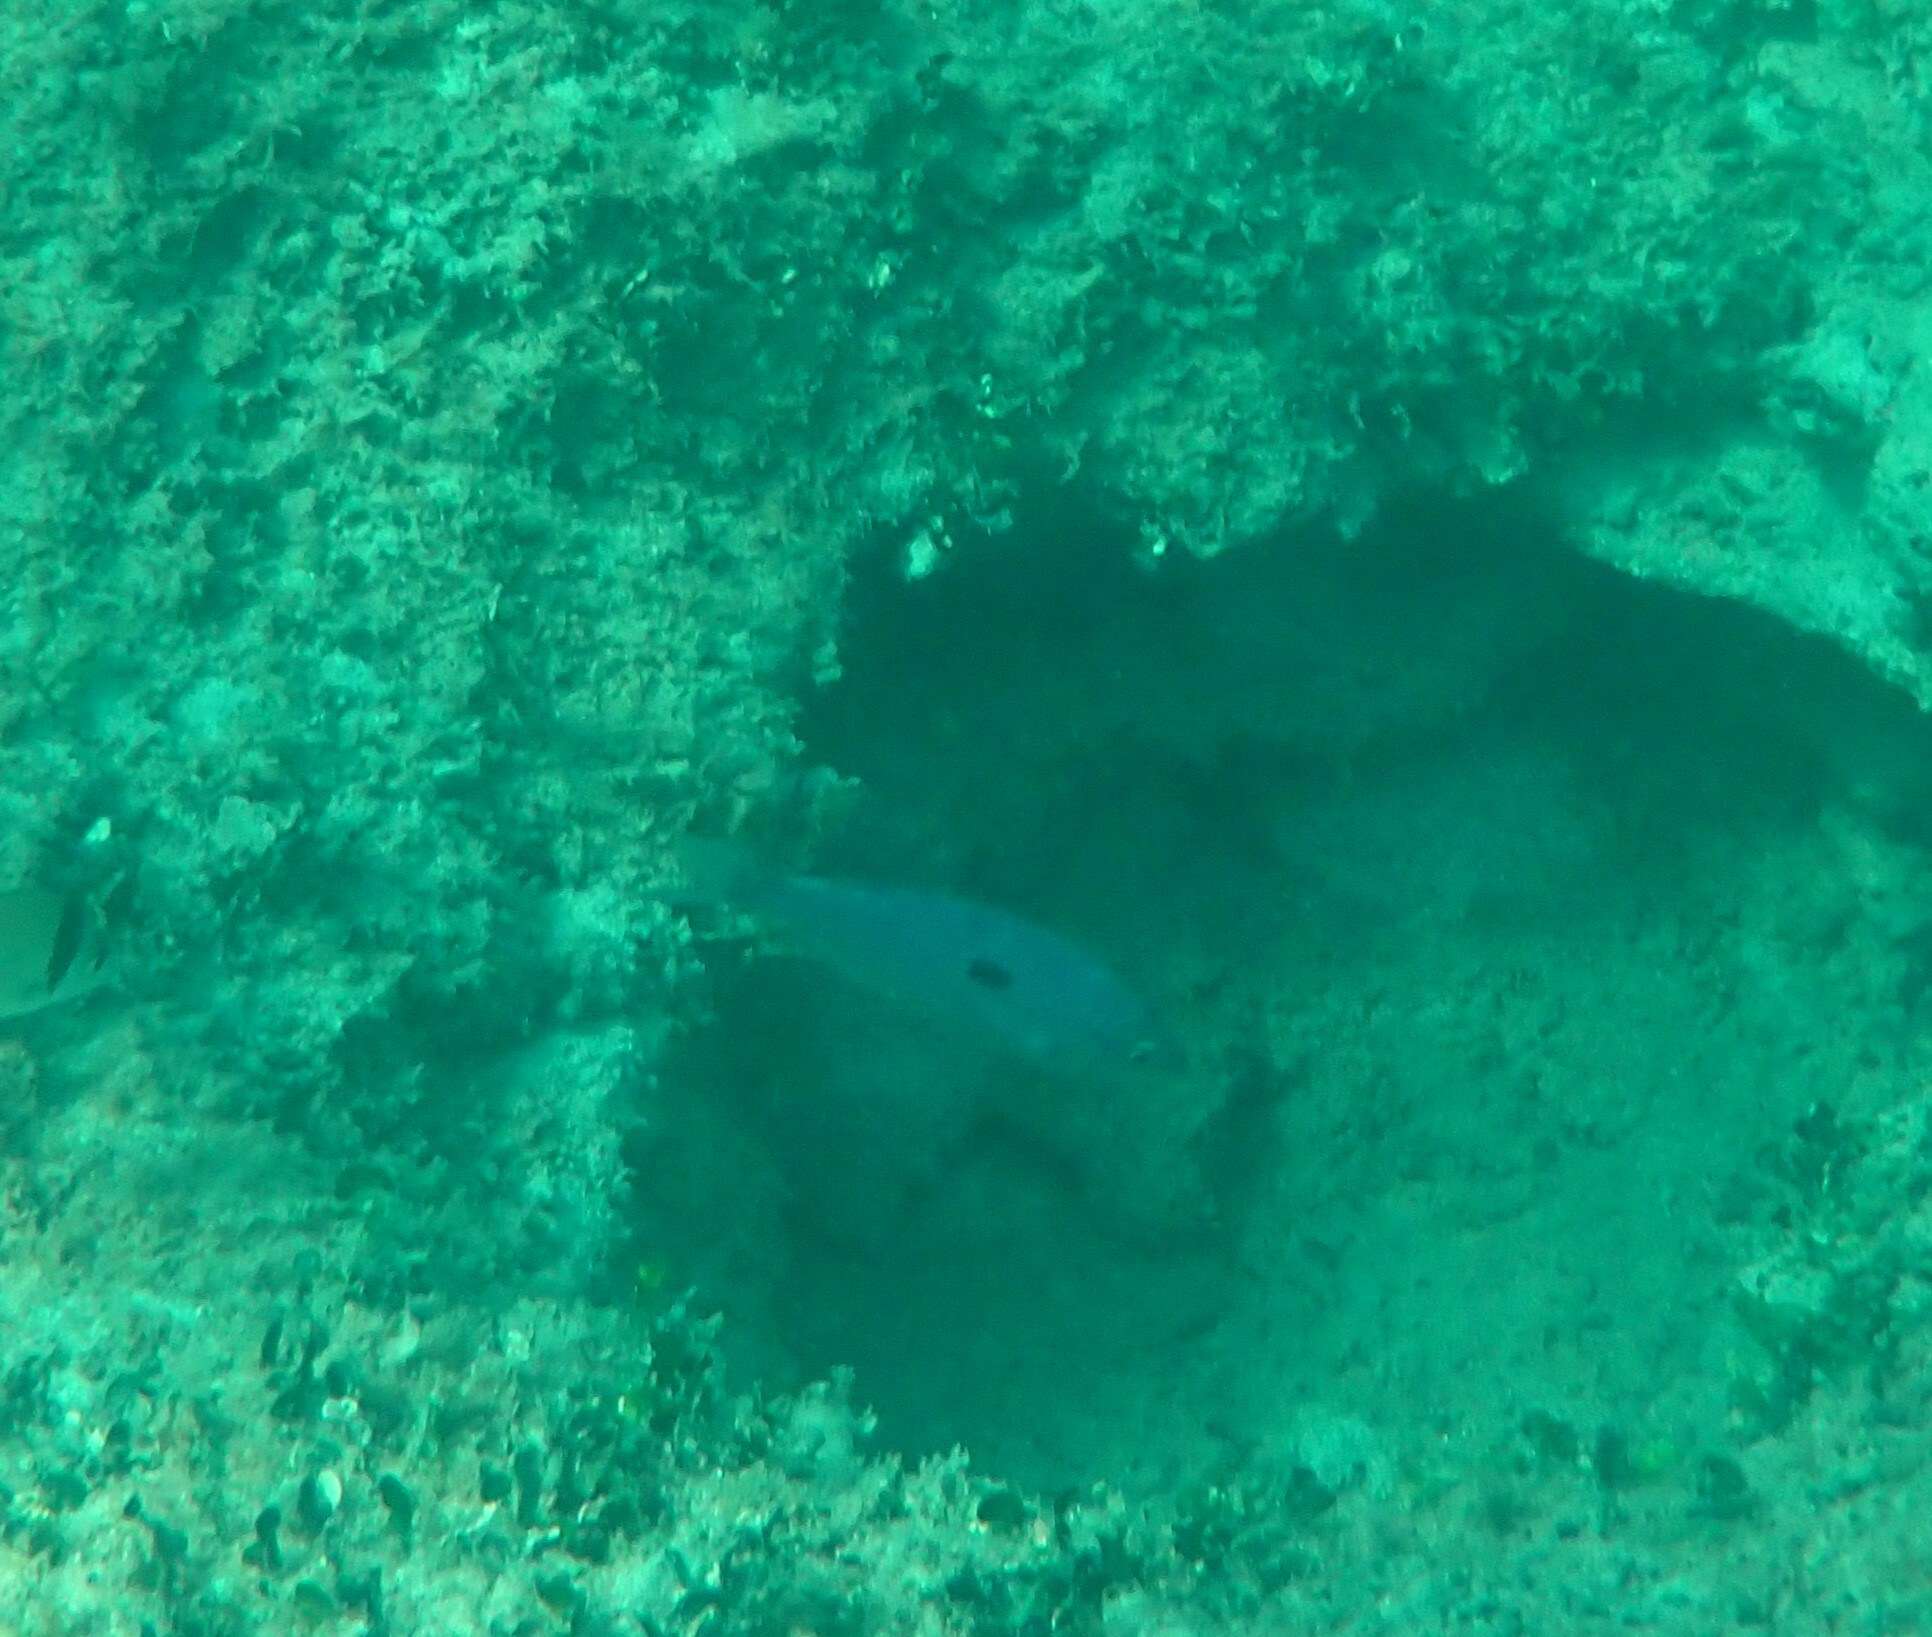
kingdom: Animalia
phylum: Chordata
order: Perciformes
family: Sparidae
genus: Spicara
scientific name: Spicara maena
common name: Blotched picarel
